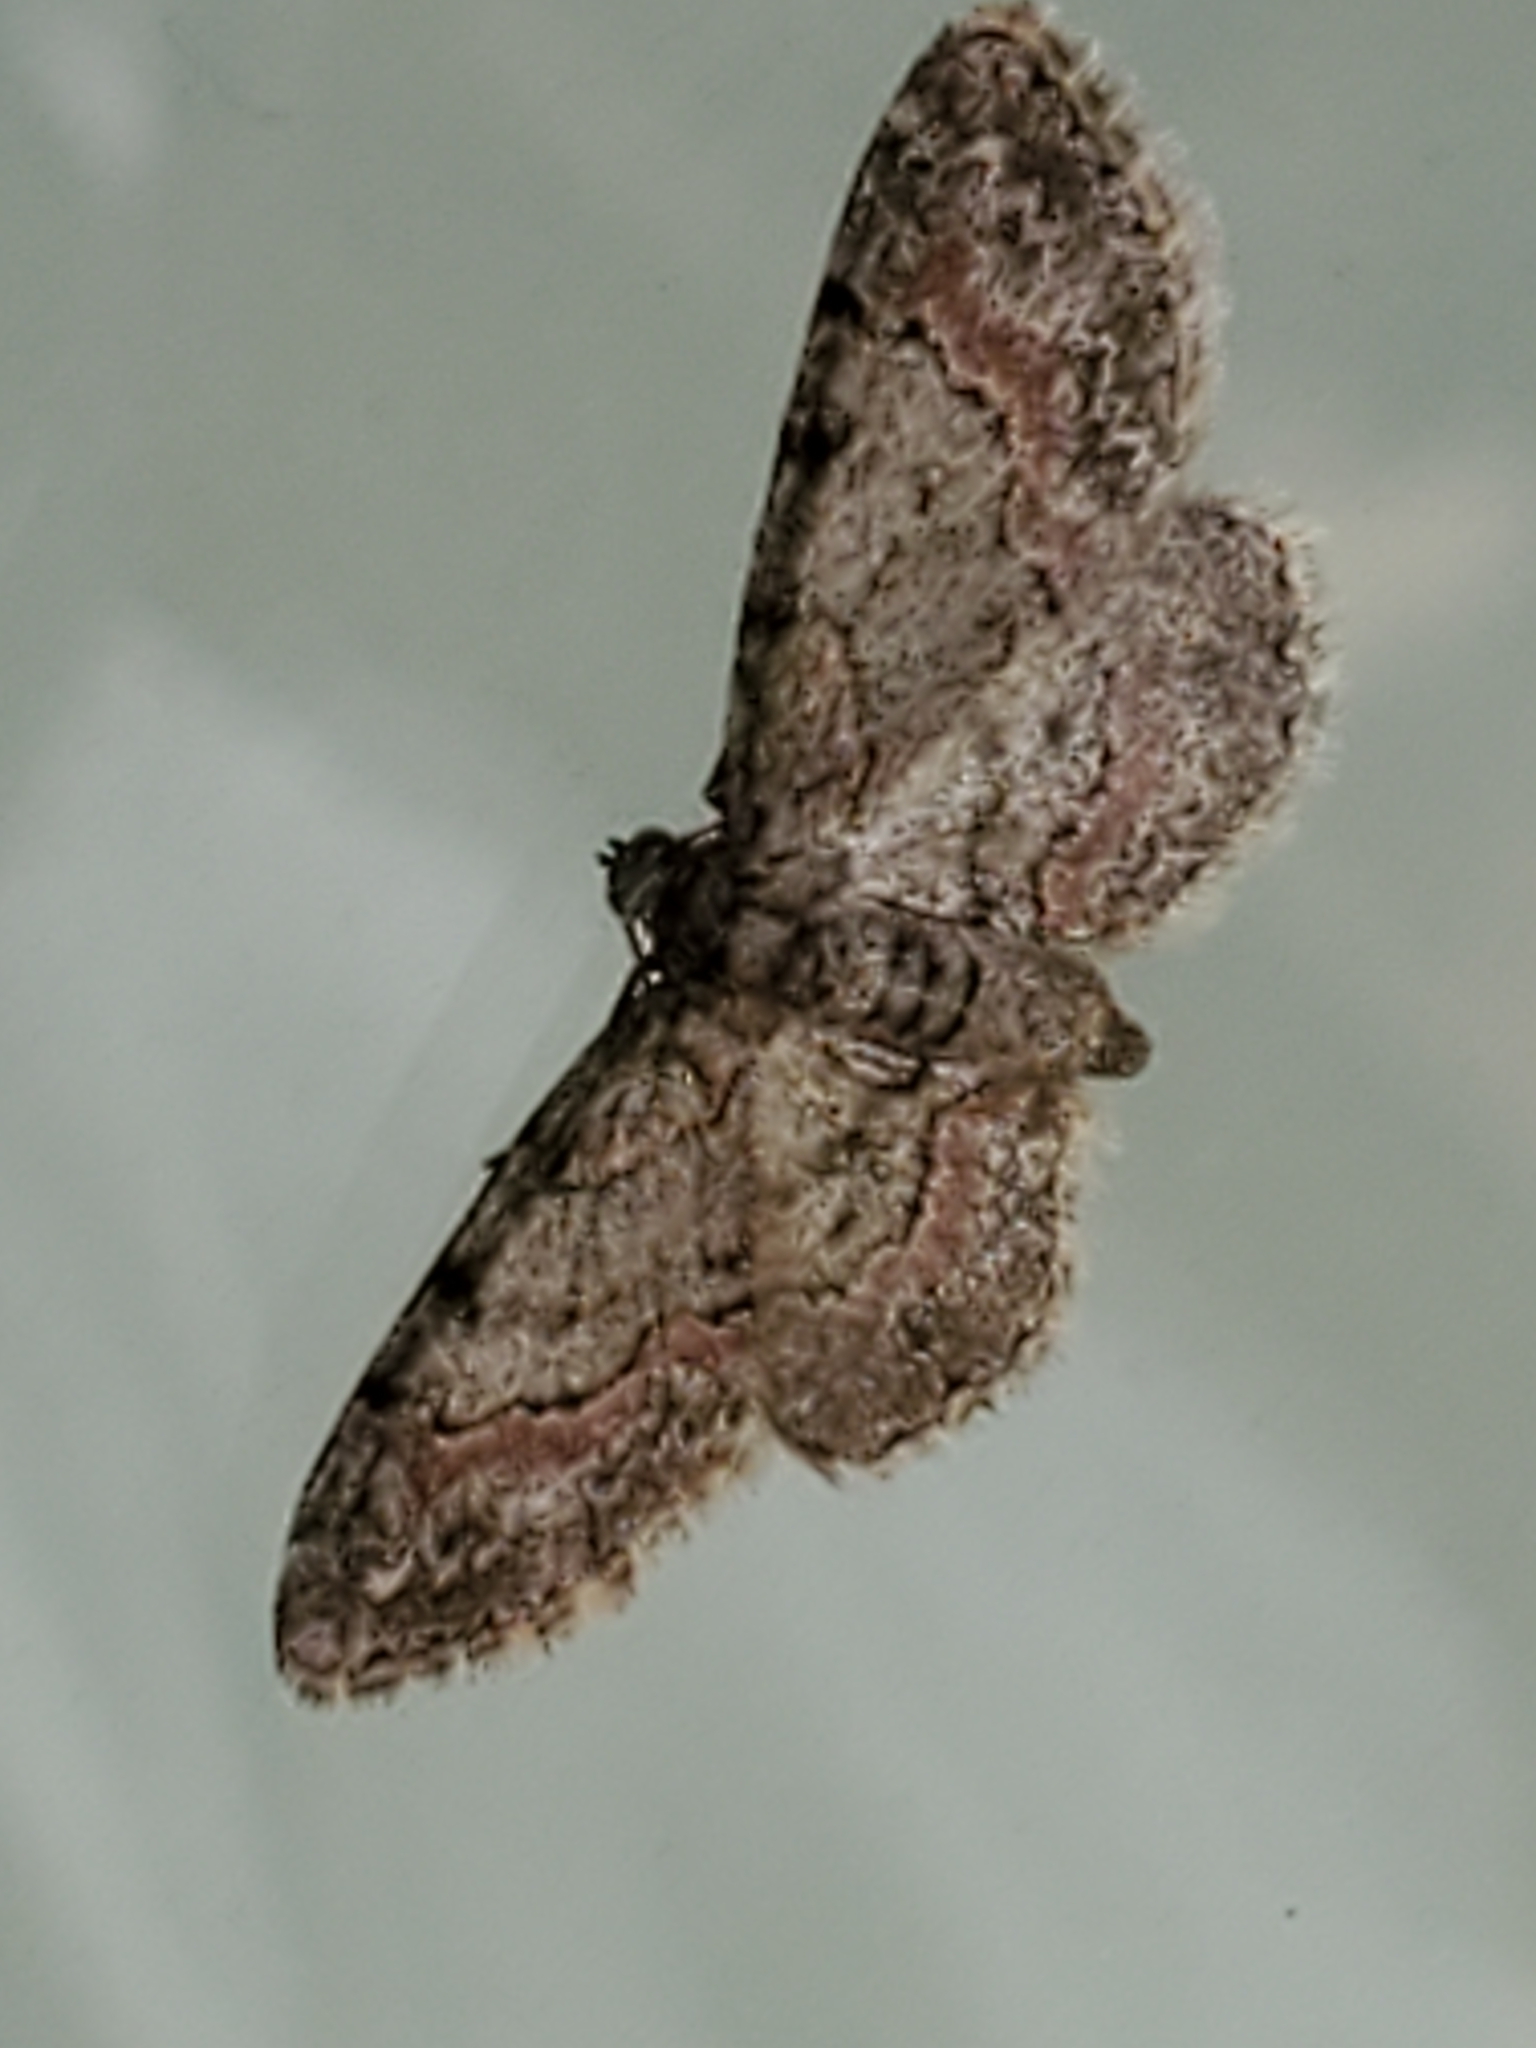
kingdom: Animalia
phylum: Arthropoda
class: Insecta
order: Lepidoptera
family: Geometridae
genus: Glenoides
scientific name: Glenoides texanaria
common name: Texas gray
